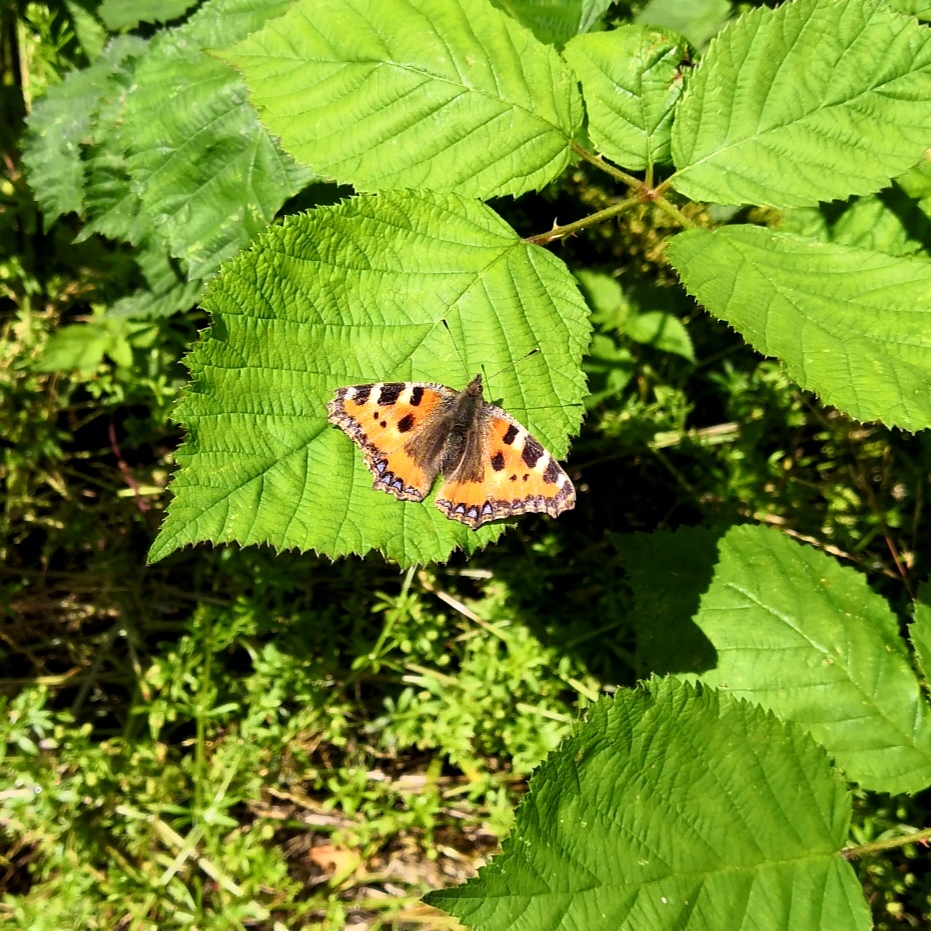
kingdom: Animalia
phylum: Arthropoda
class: Insecta
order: Lepidoptera
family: Nymphalidae
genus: Aglais
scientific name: Aglais urticae
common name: Small tortoiseshell
